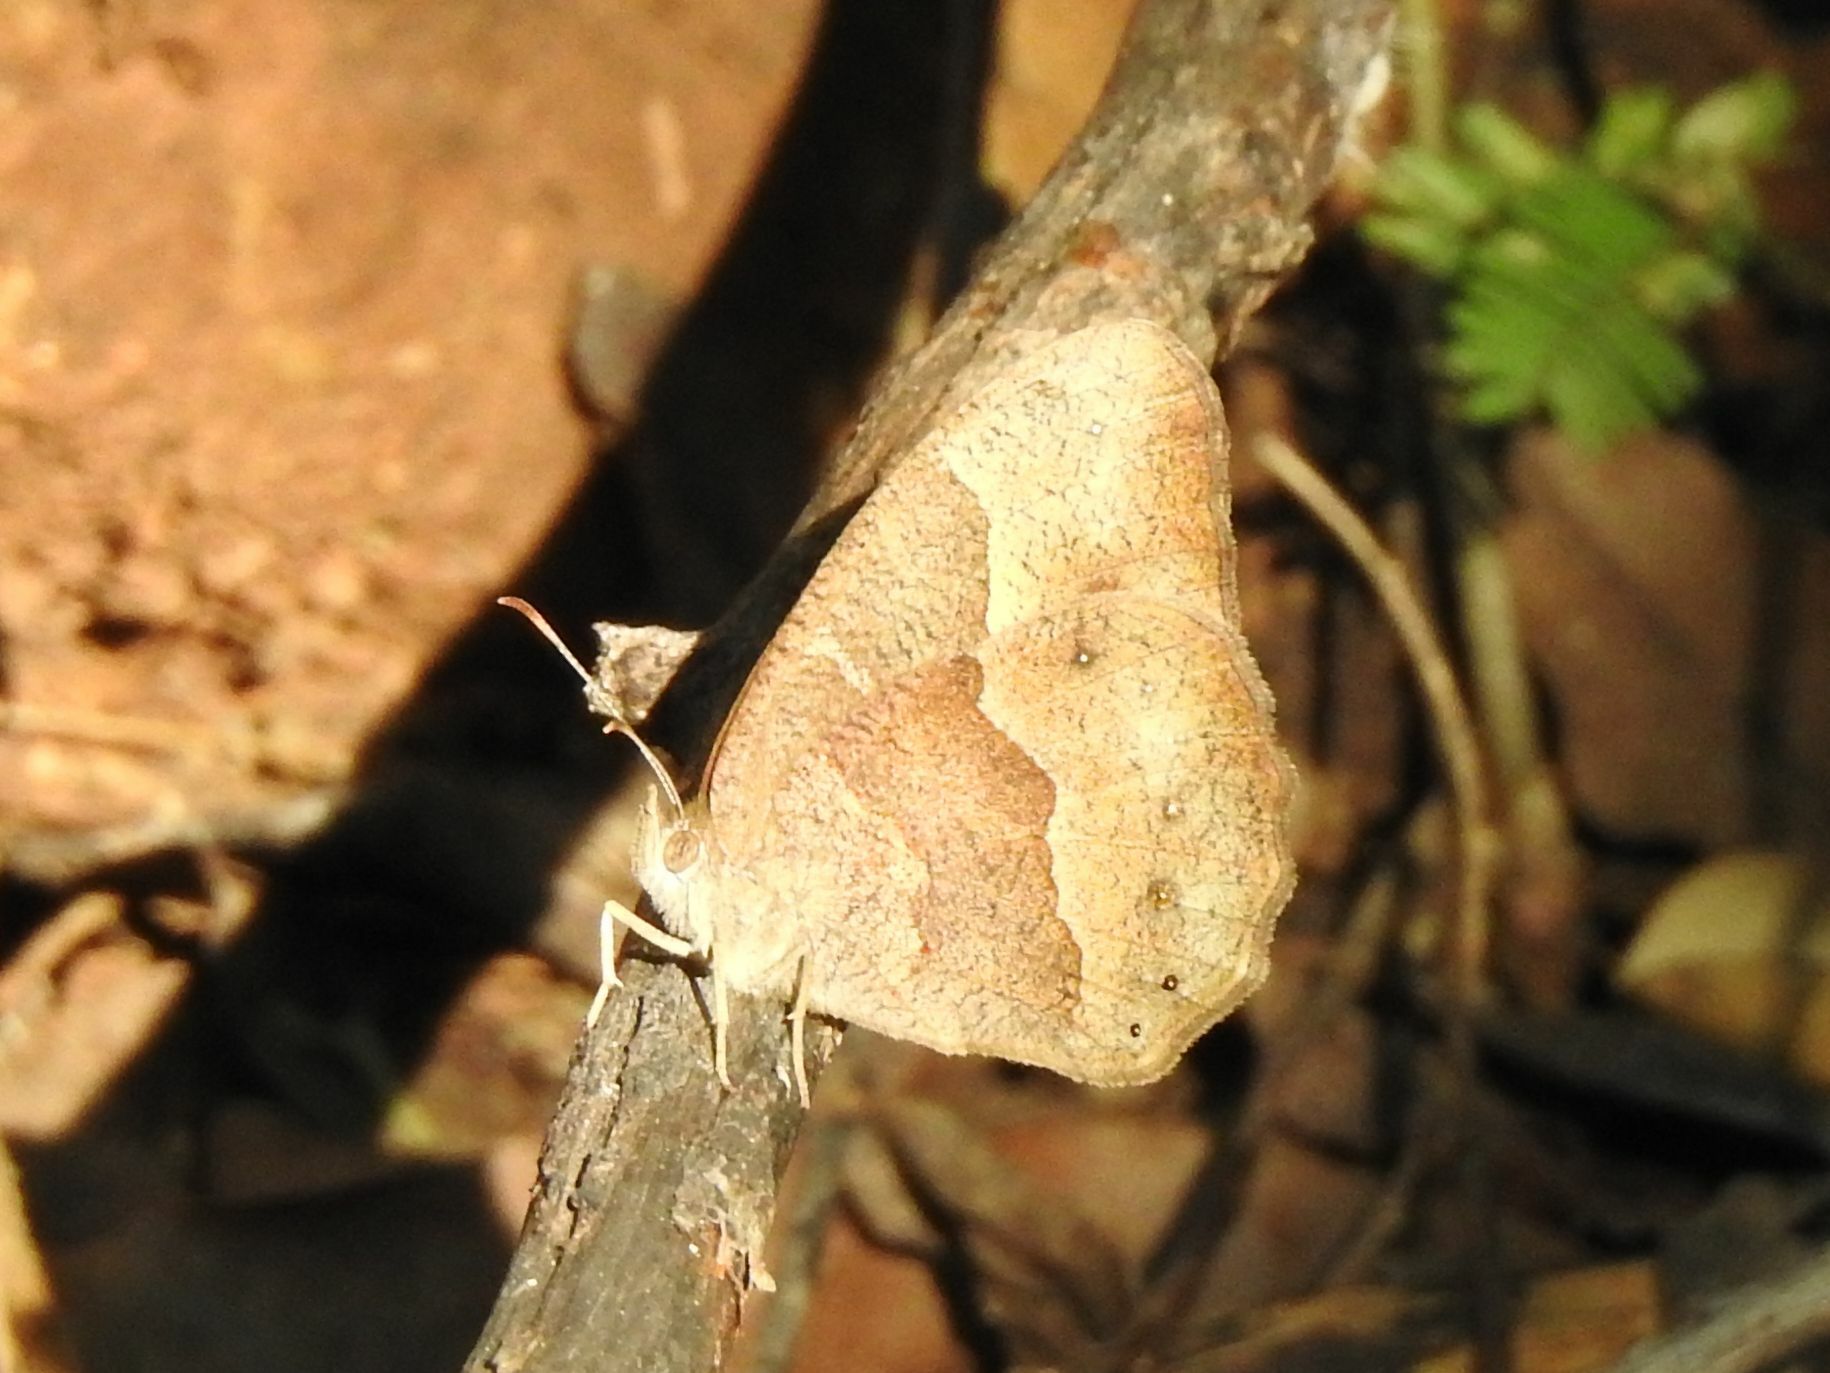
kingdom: Animalia
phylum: Arthropoda
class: Insecta
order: Lepidoptera
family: Nymphalidae
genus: Mycalesis
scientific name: Mycalesis anynana
